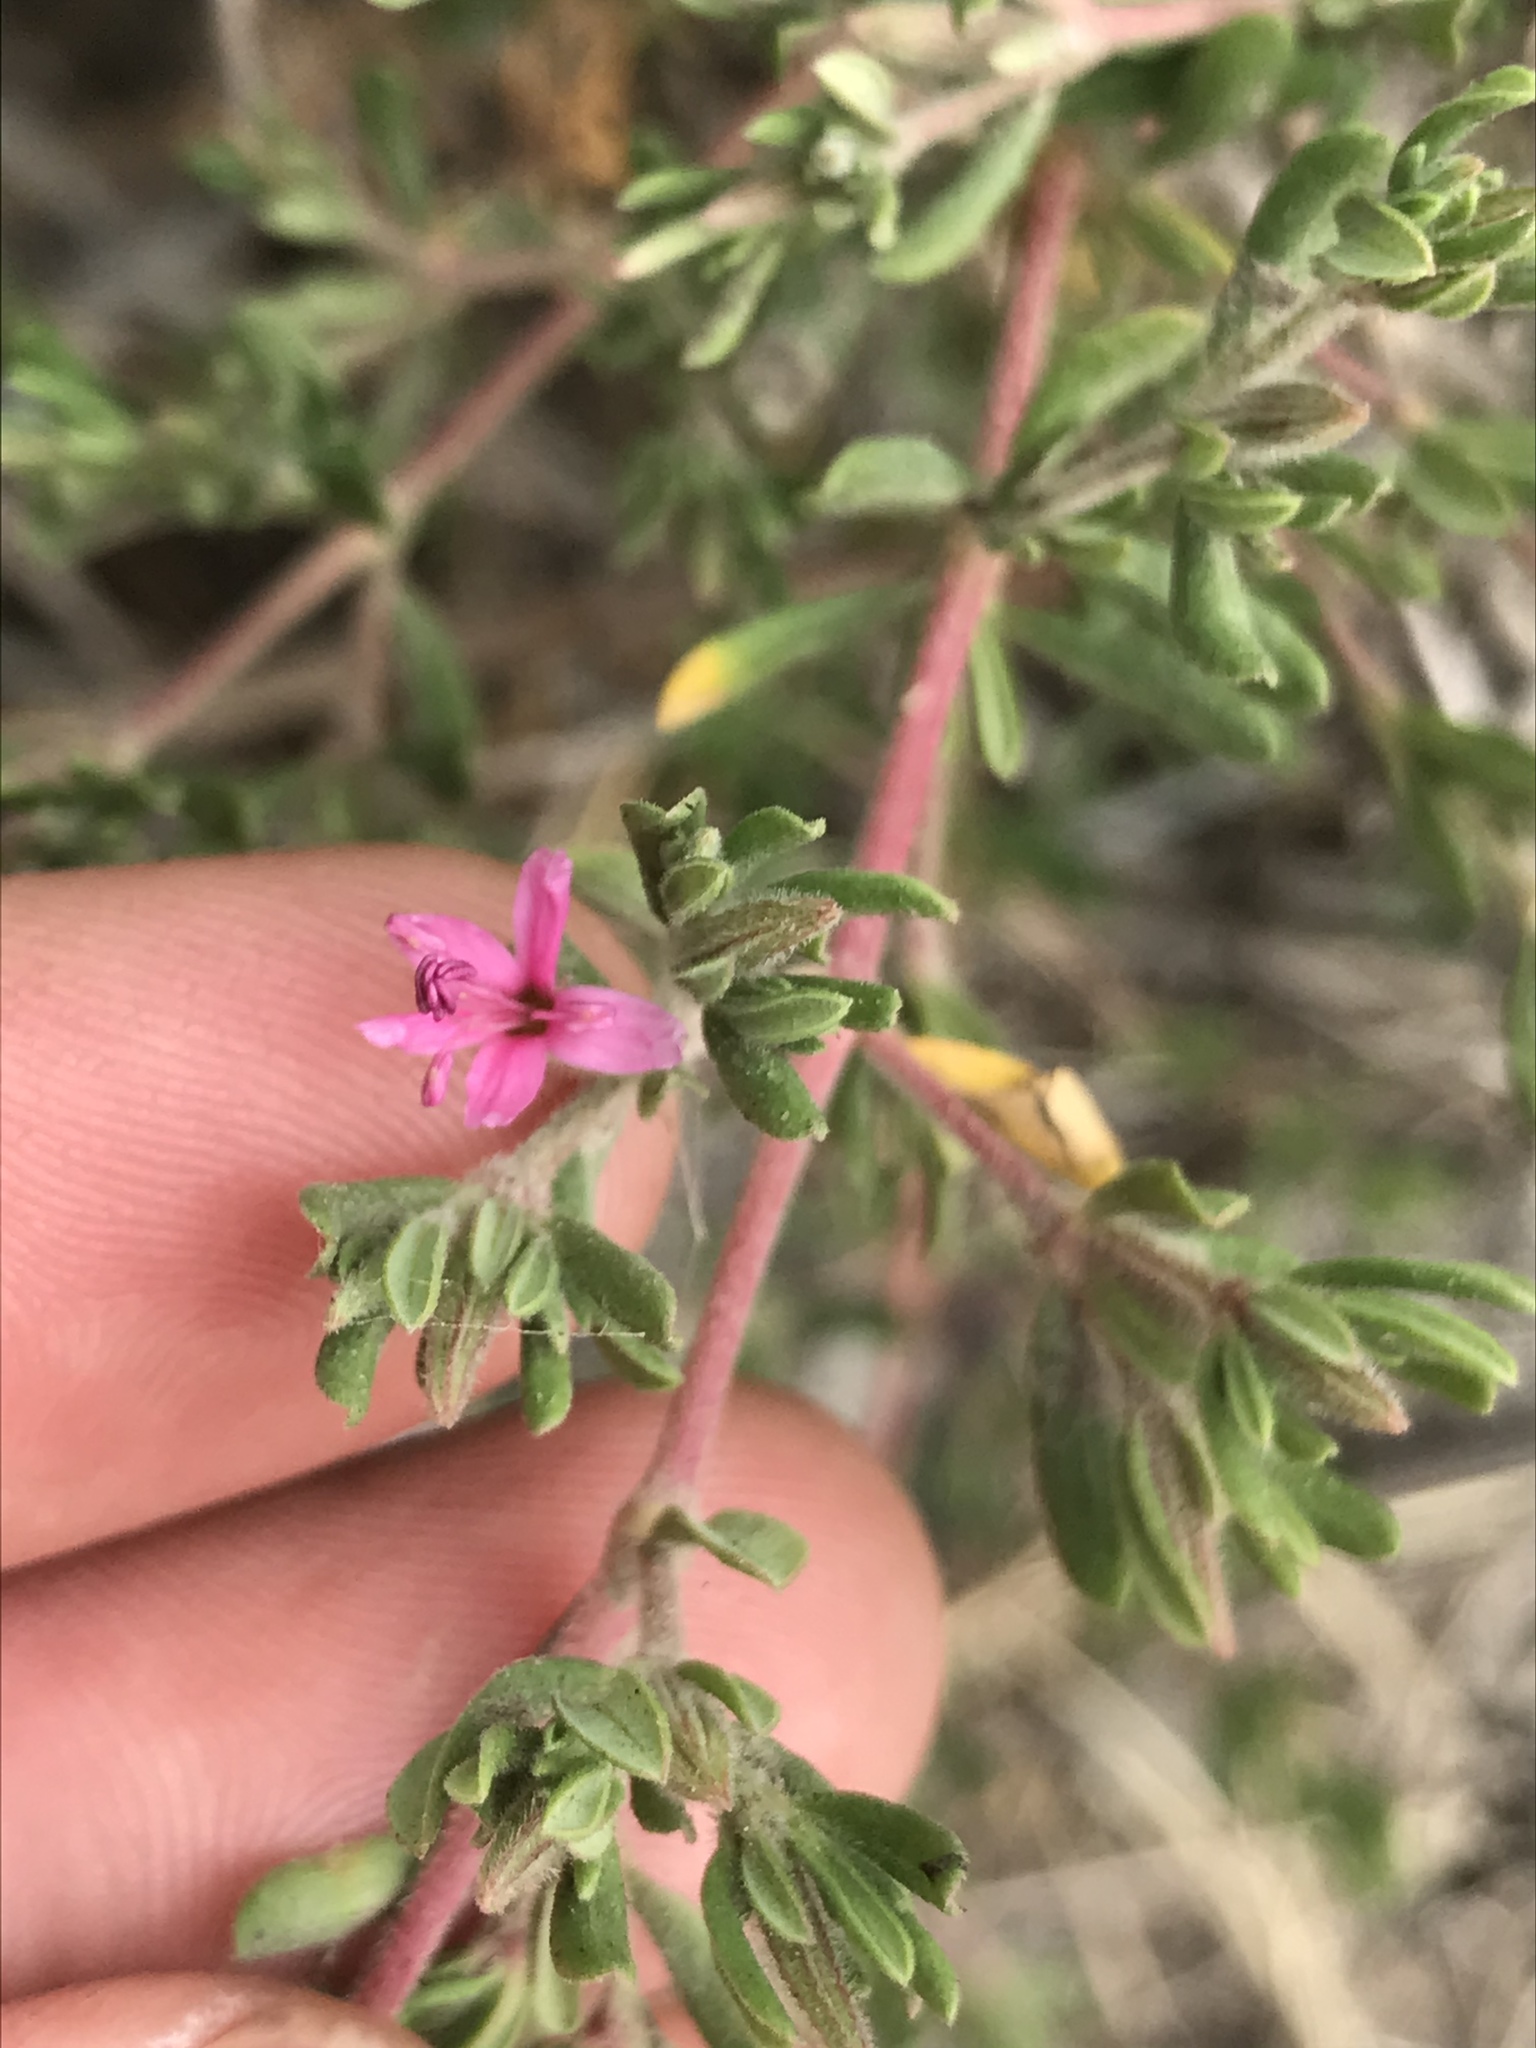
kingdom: Plantae
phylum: Tracheophyta
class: Magnoliopsida
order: Caryophyllales
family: Frankeniaceae
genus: Frankenia
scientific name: Frankenia salina
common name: Alkali seaheath
